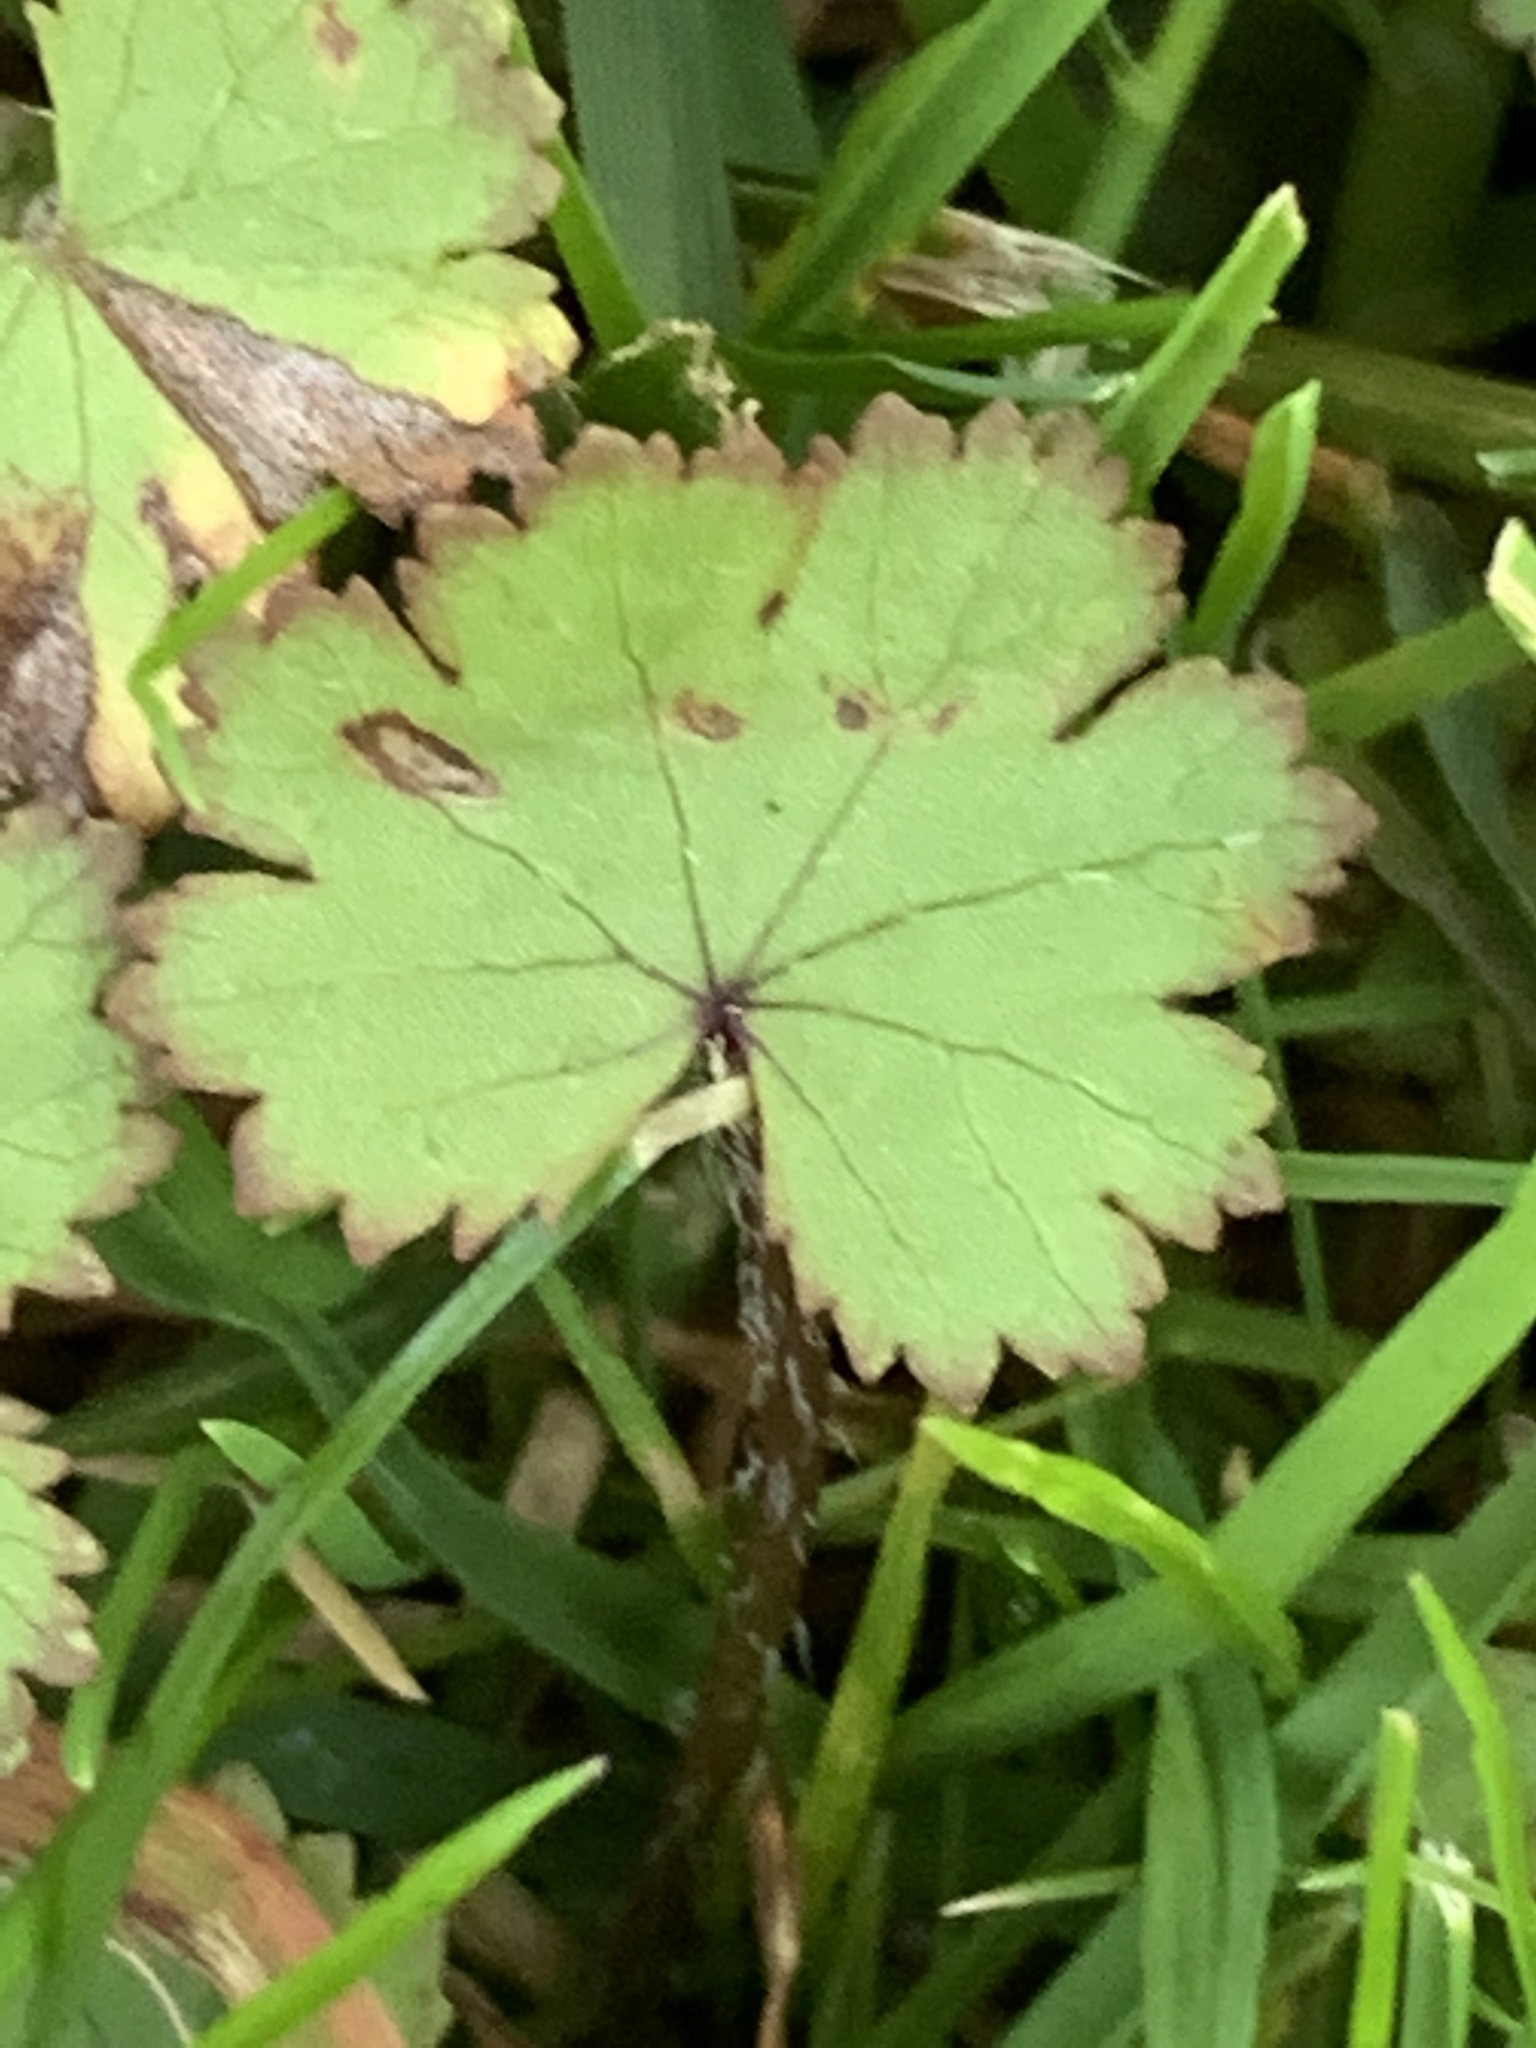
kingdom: Plantae
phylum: Tracheophyta
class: Magnoliopsida
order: Apiales
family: Araliaceae
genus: Hydrocotyle
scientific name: Hydrocotyle moschata
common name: Hairy pennywort
